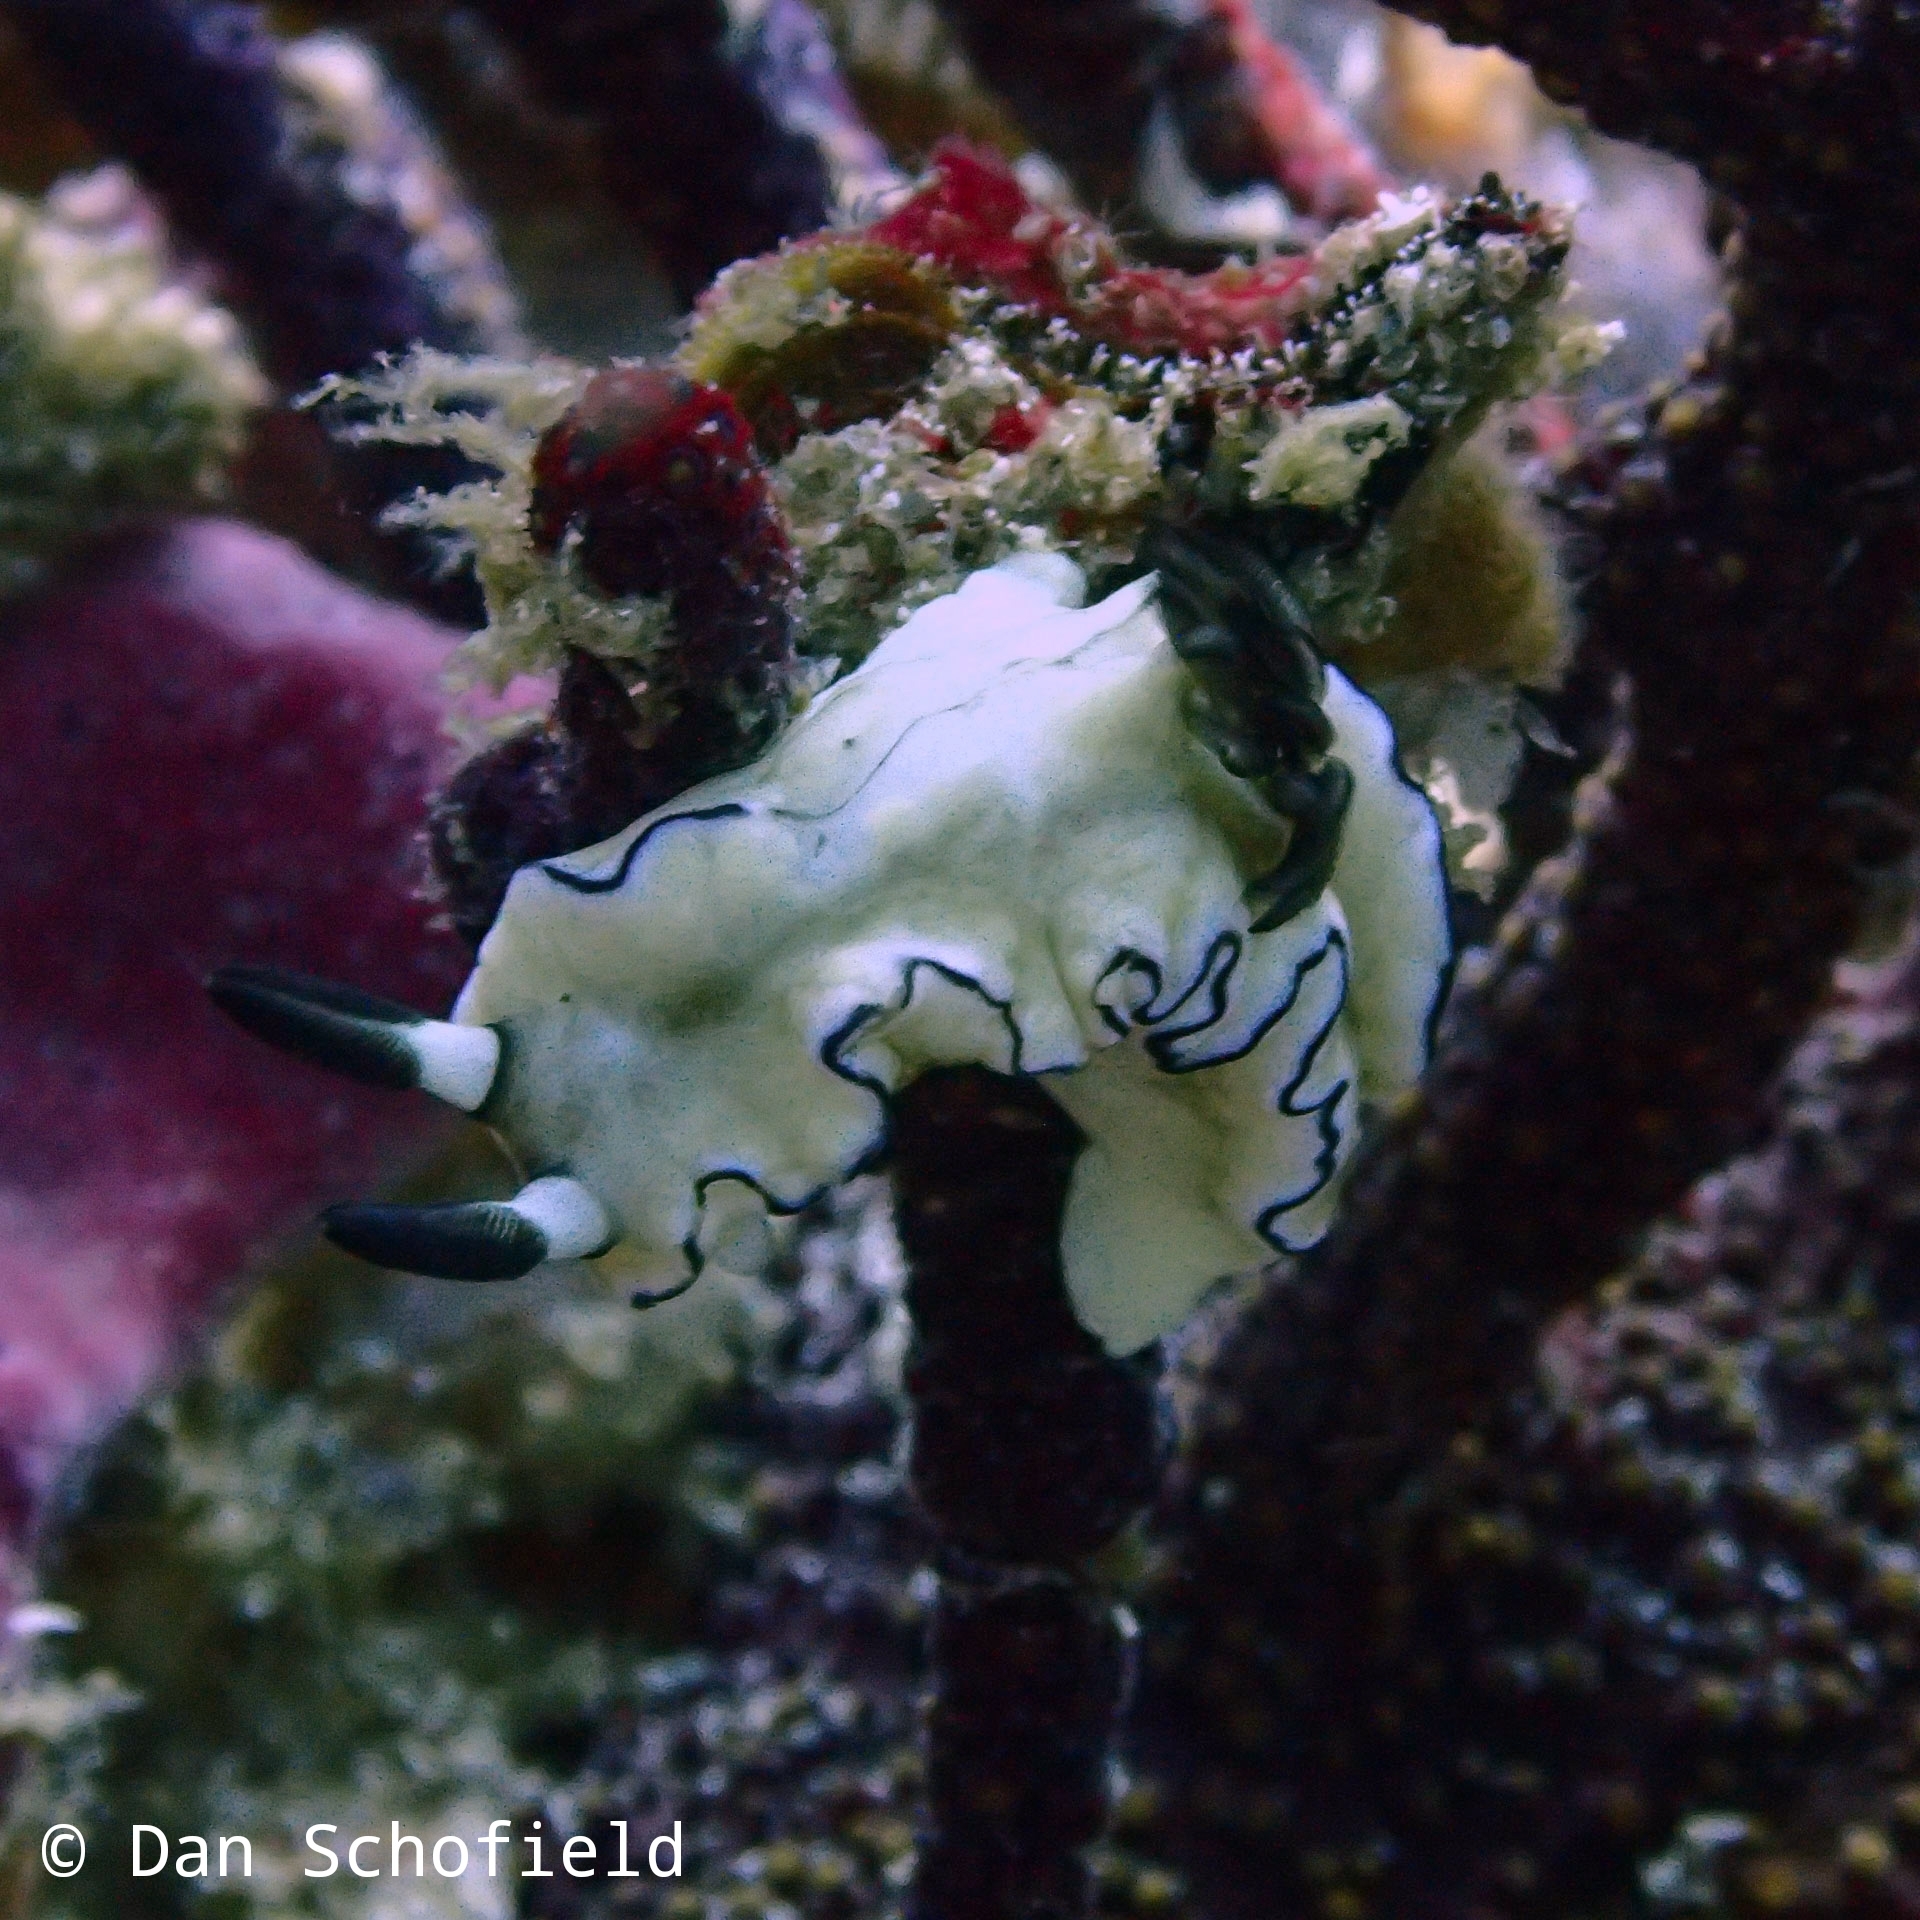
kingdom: Animalia
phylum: Mollusca
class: Gastropoda
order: Nudibranchia
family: Chromodorididae
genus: Doriprismatica
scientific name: Doriprismatica atromarginata
